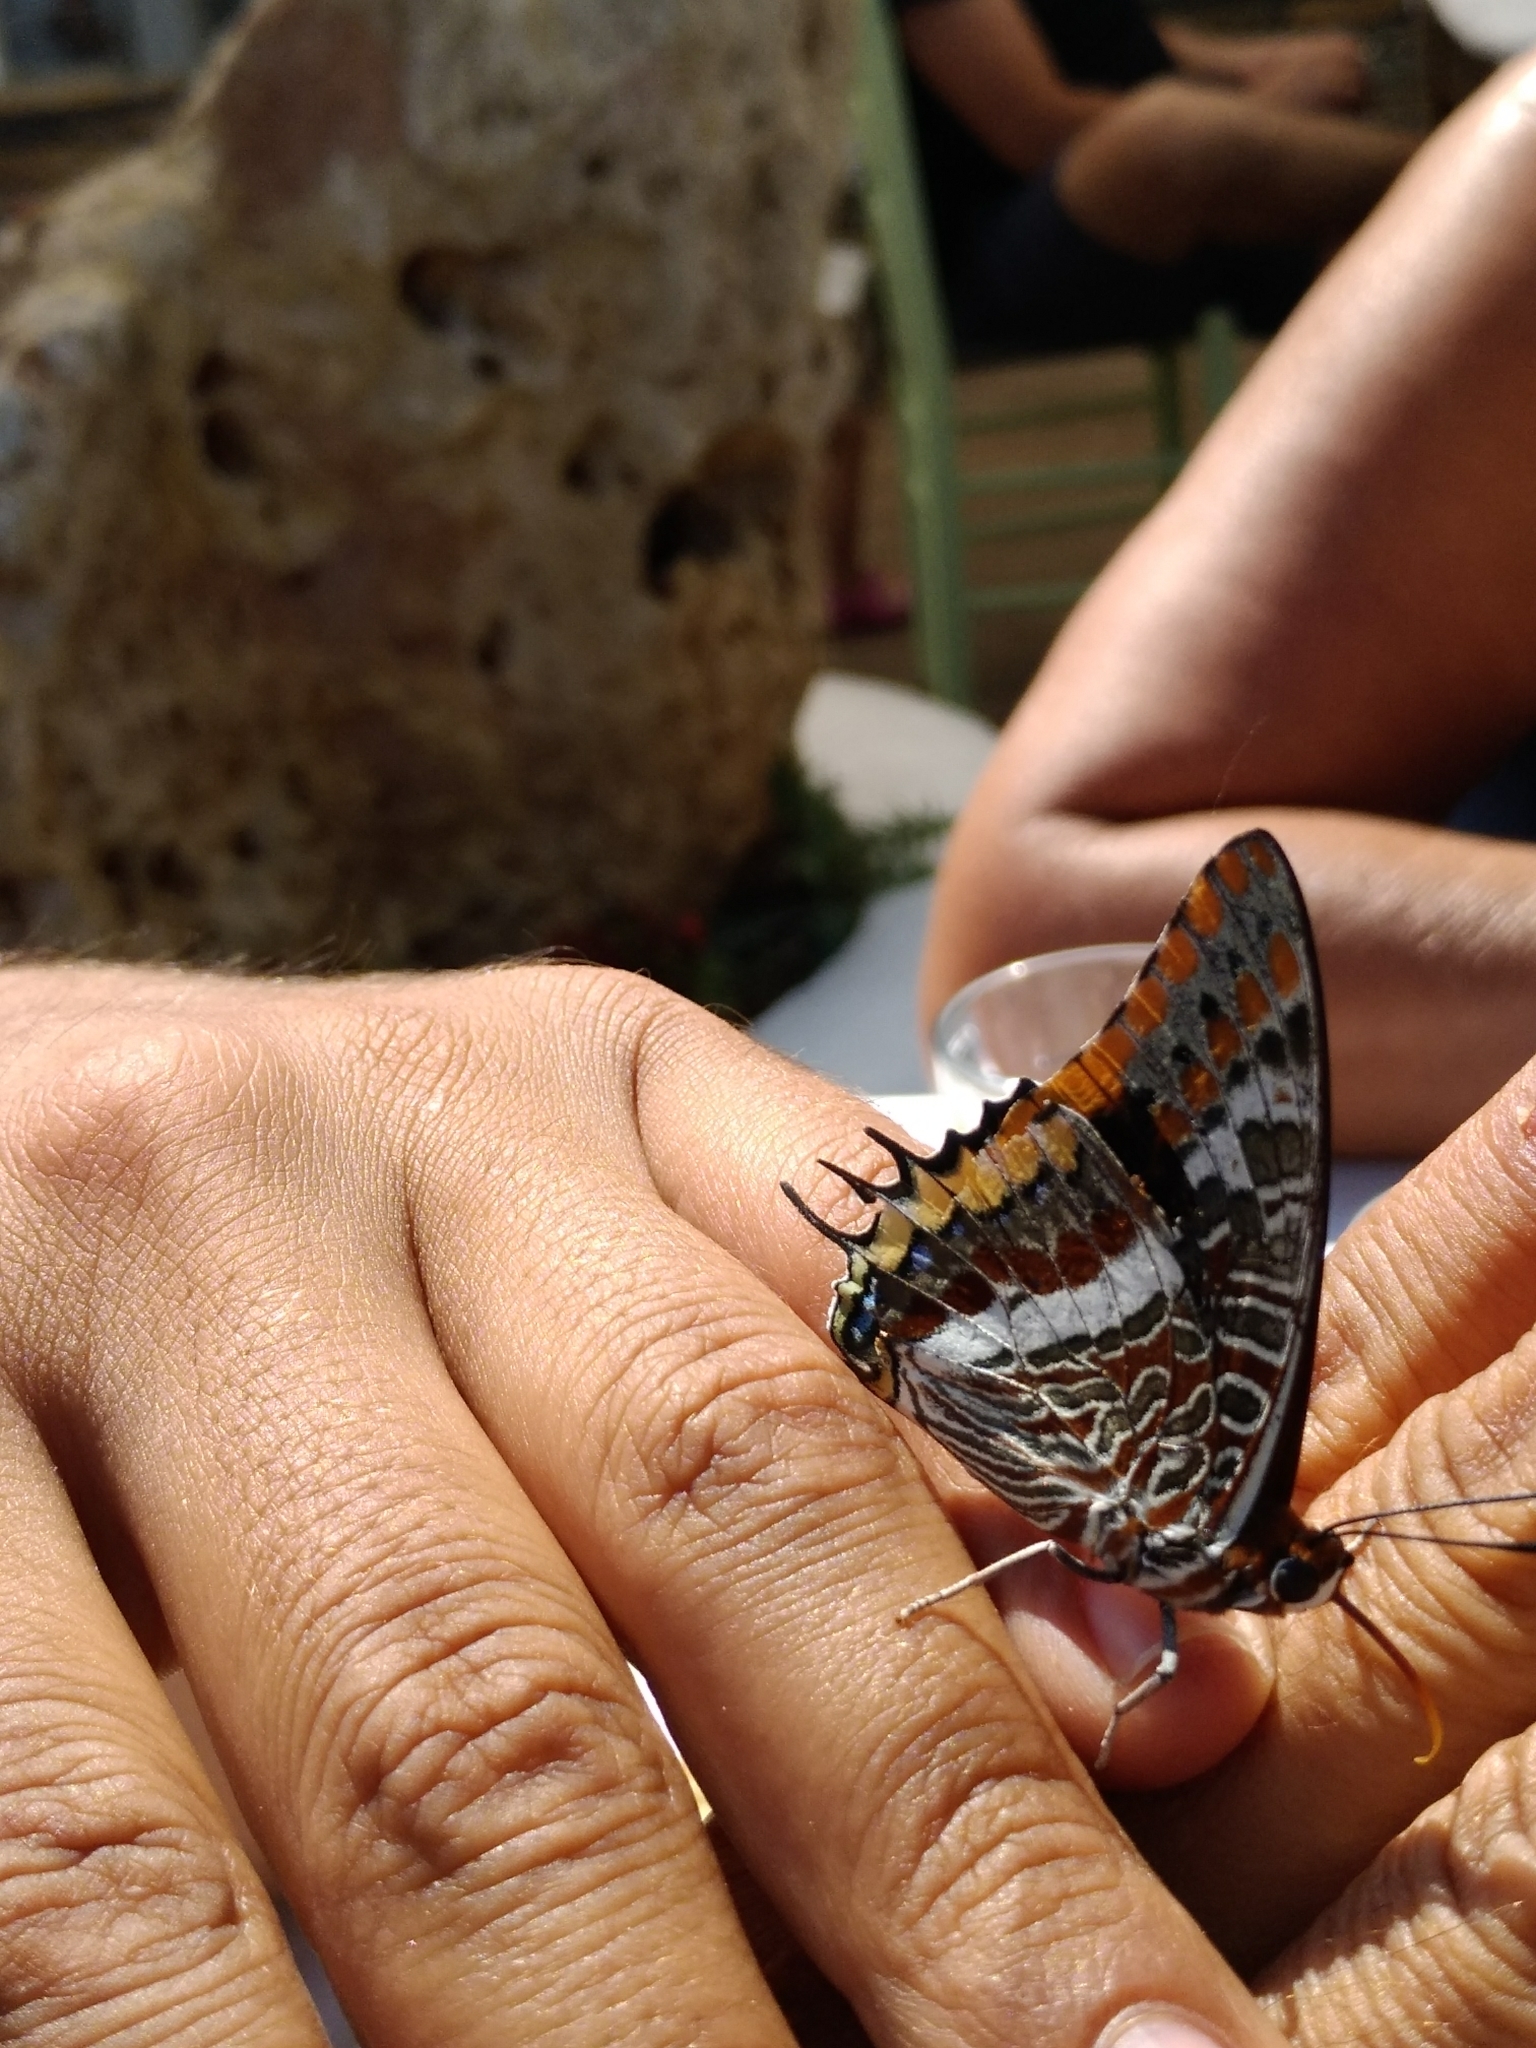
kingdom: Animalia
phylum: Arthropoda
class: Insecta
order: Lepidoptera
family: Nymphalidae
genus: Charaxes
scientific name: Charaxes jasius
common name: Two tailed pasha
